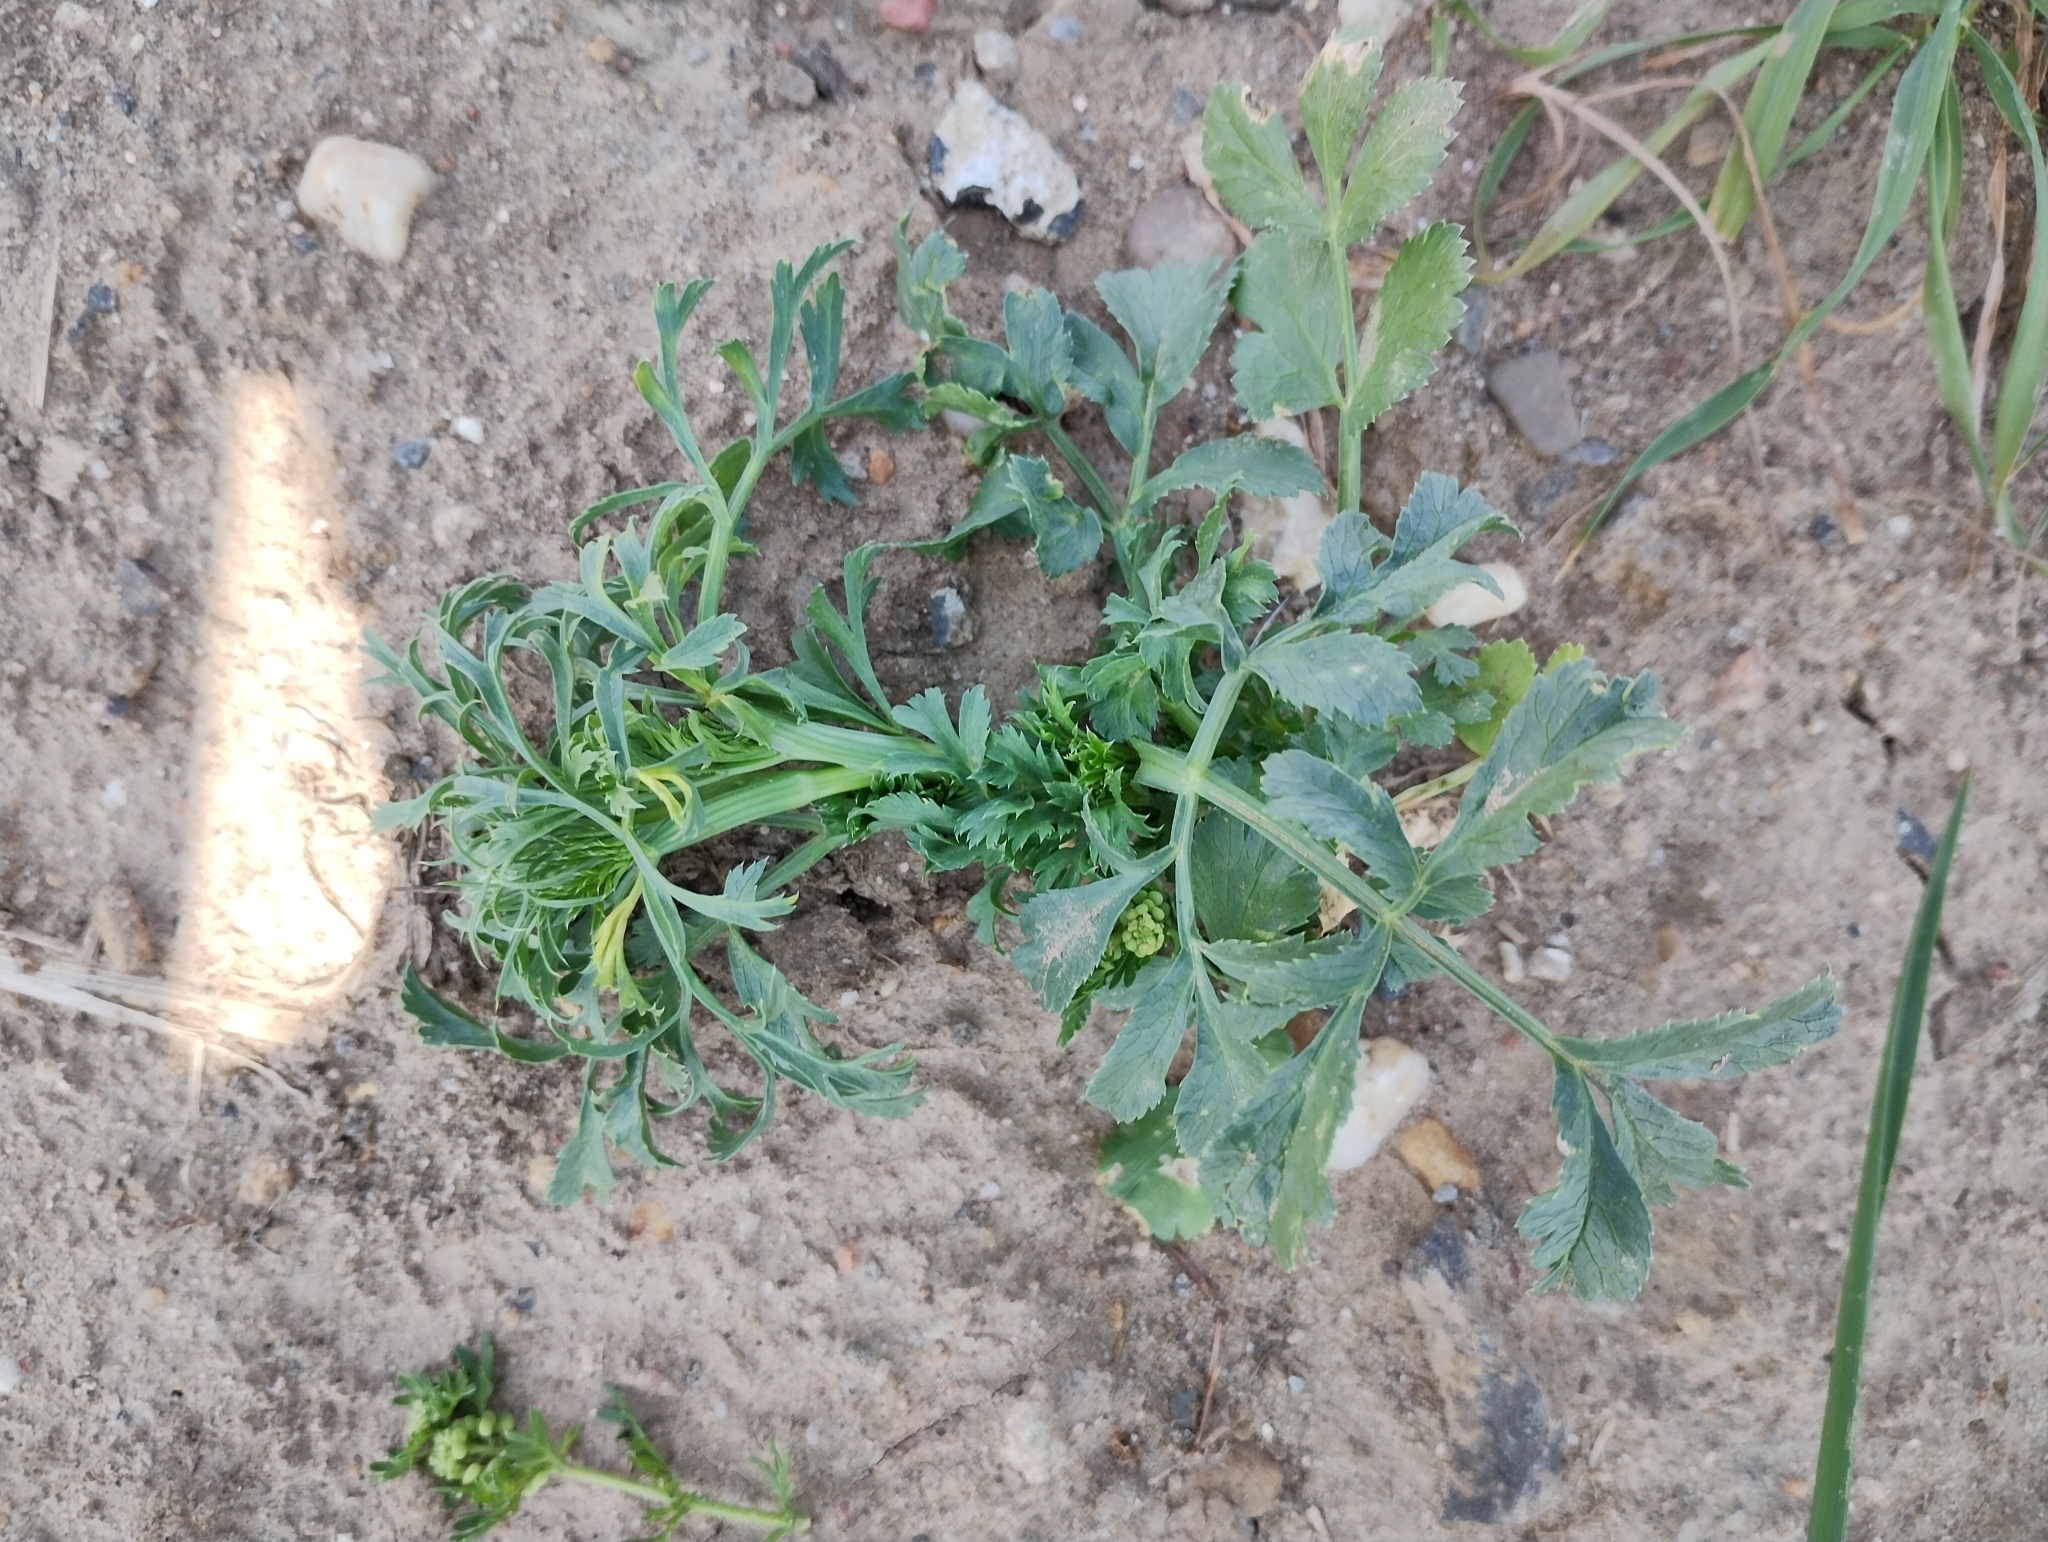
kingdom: Plantae
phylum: Tracheophyta
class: Magnoliopsida
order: Apiales
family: Apiaceae
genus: Ammi
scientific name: Ammi majus
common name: Bullwort
